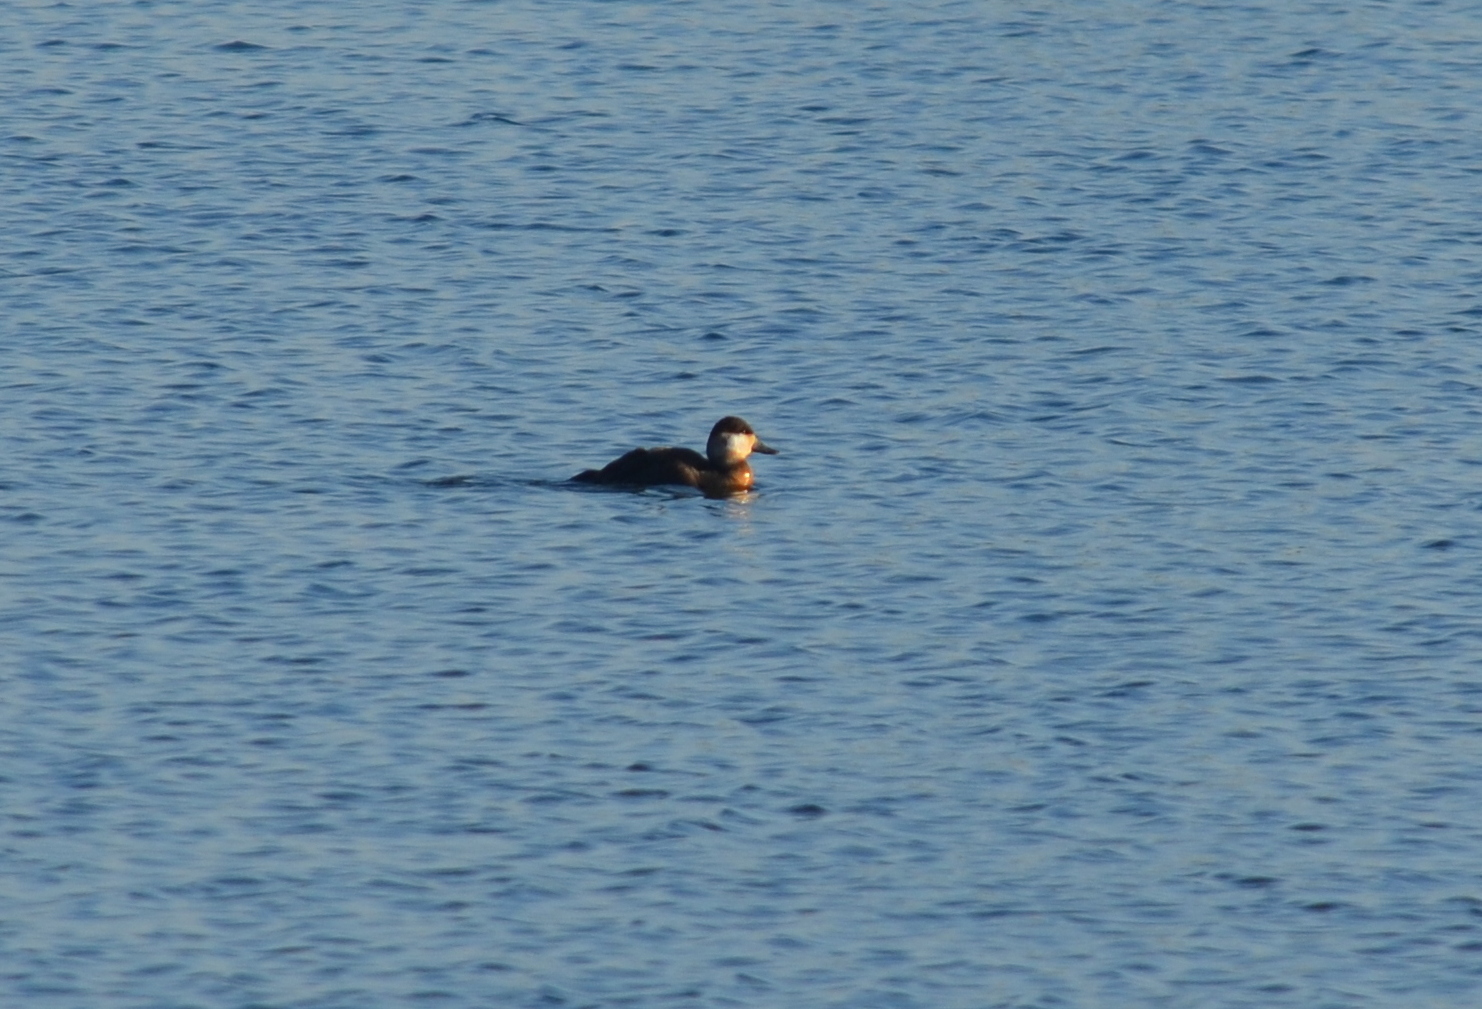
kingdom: Animalia
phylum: Chordata
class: Aves
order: Anseriformes
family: Anatidae
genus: Oxyura
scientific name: Oxyura jamaicensis
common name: Ruddy duck
